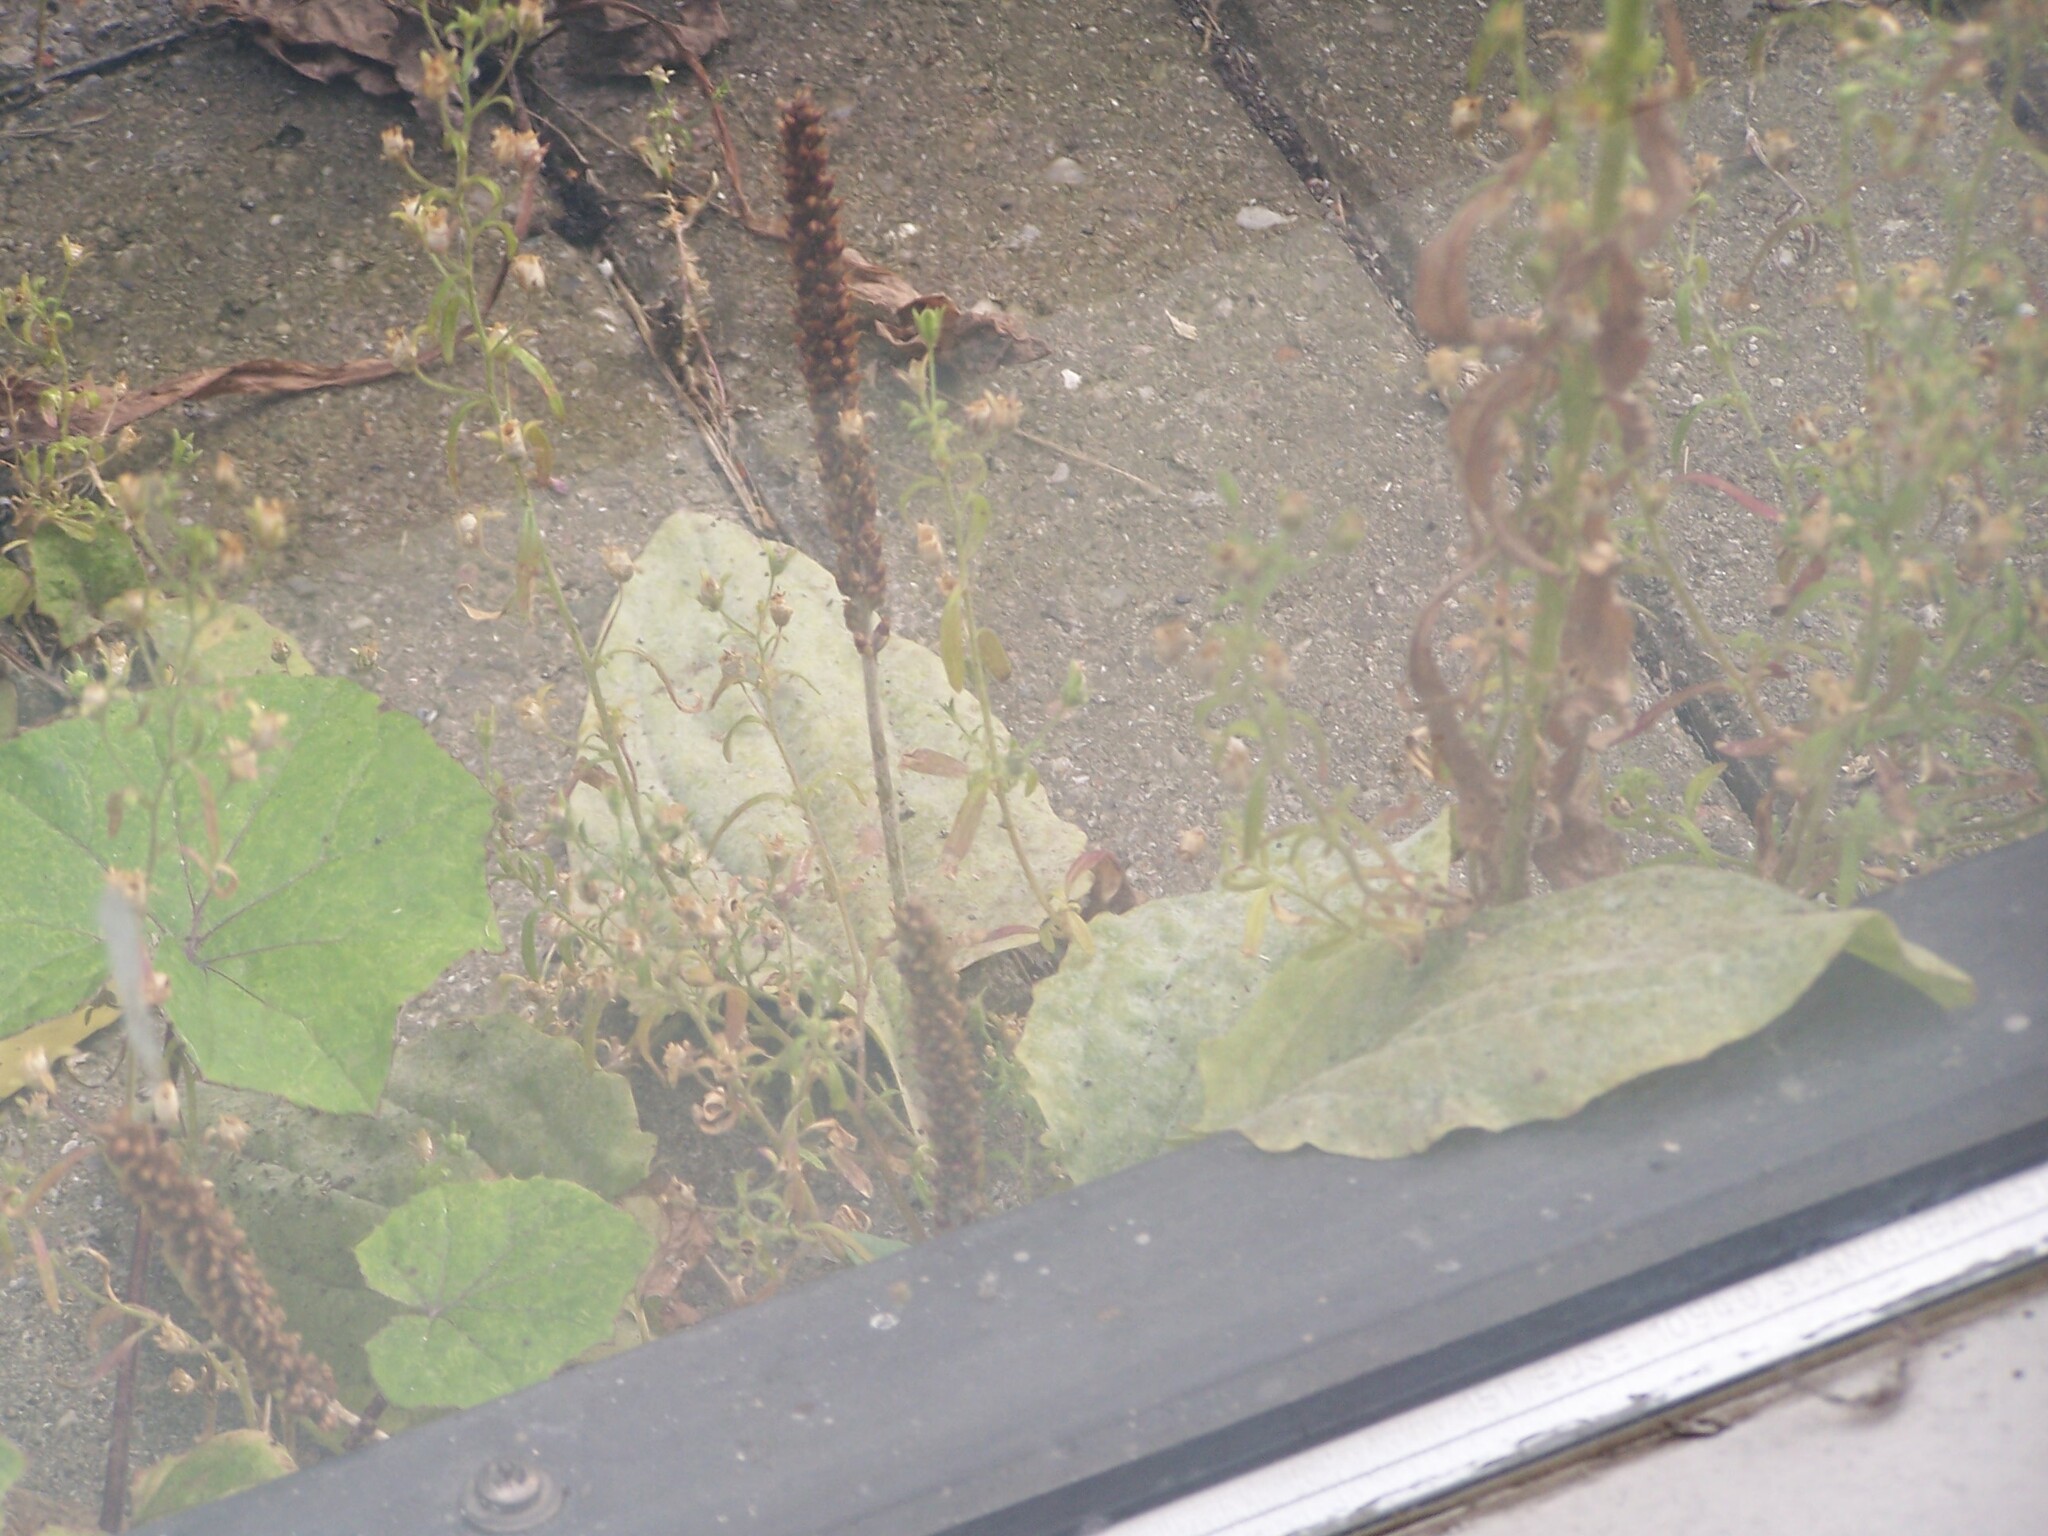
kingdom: Plantae
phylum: Tracheophyta
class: Magnoliopsida
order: Lamiales
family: Plantaginaceae
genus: Plantago
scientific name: Plantago major
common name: Common plantain
